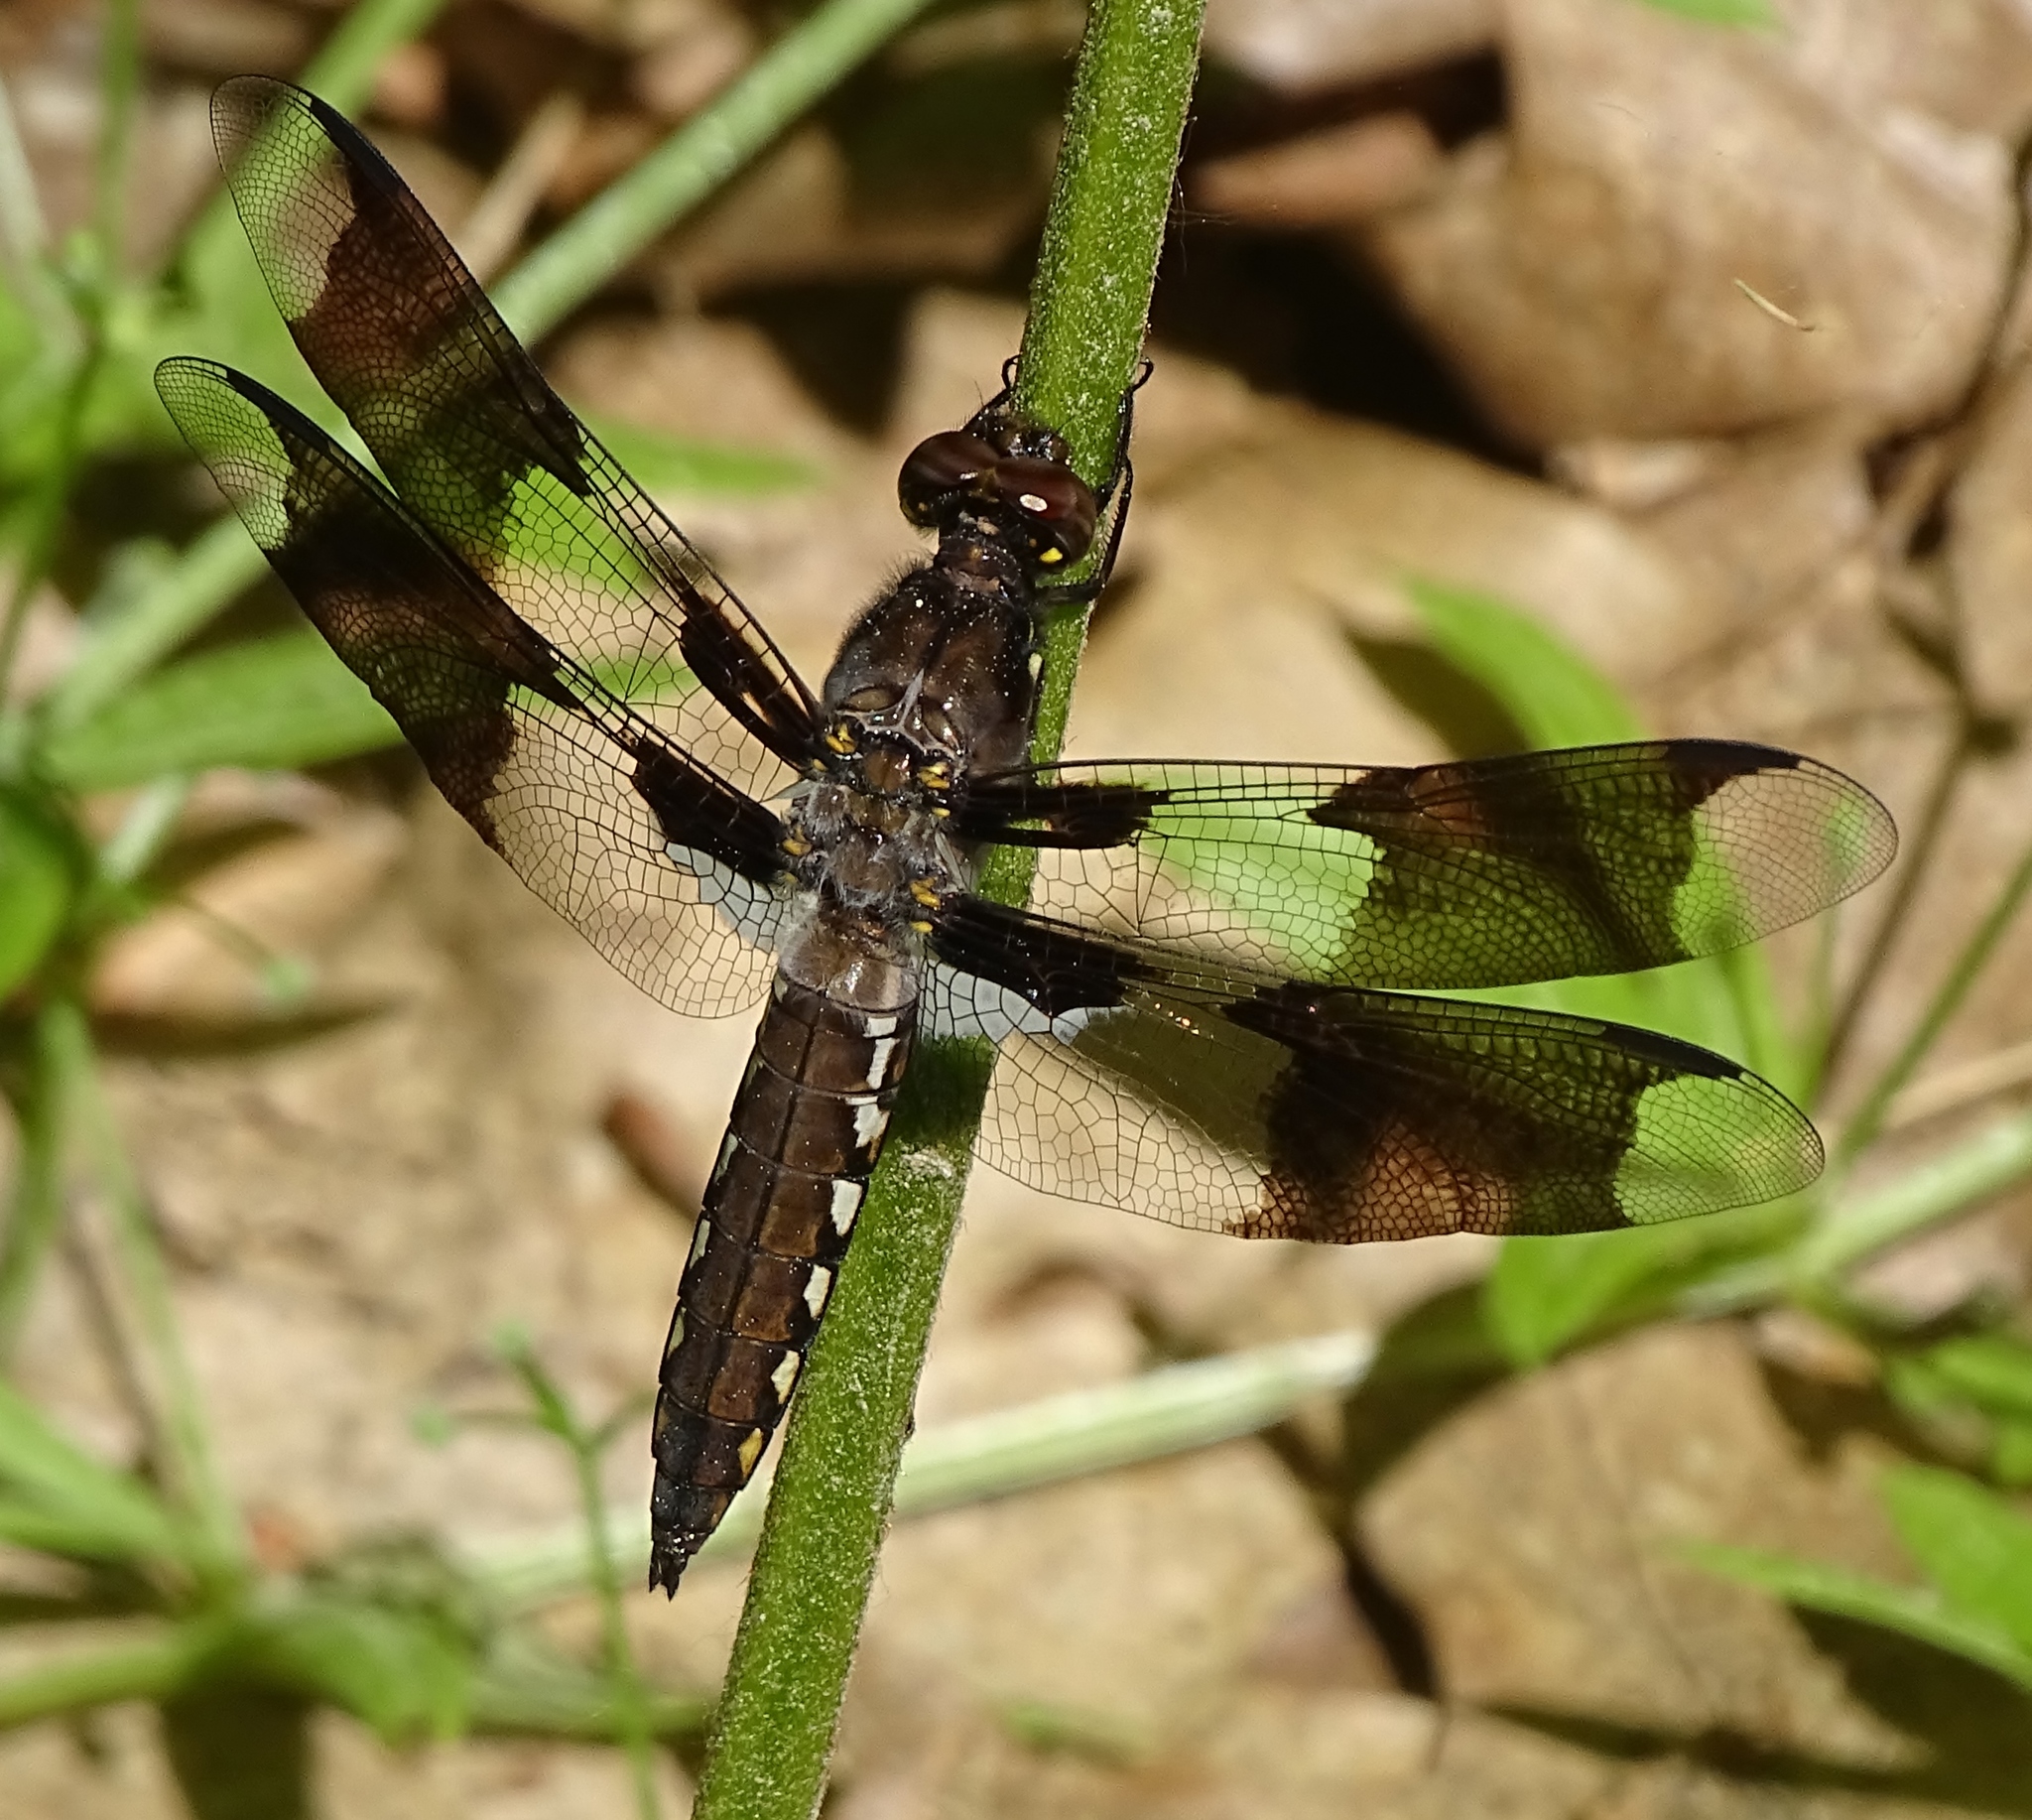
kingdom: Animalia
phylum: Arthropoda
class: Insecta
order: Odonata
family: Libellulidae
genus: Plathemis
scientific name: Plathemis lydia
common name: Common whitetail
